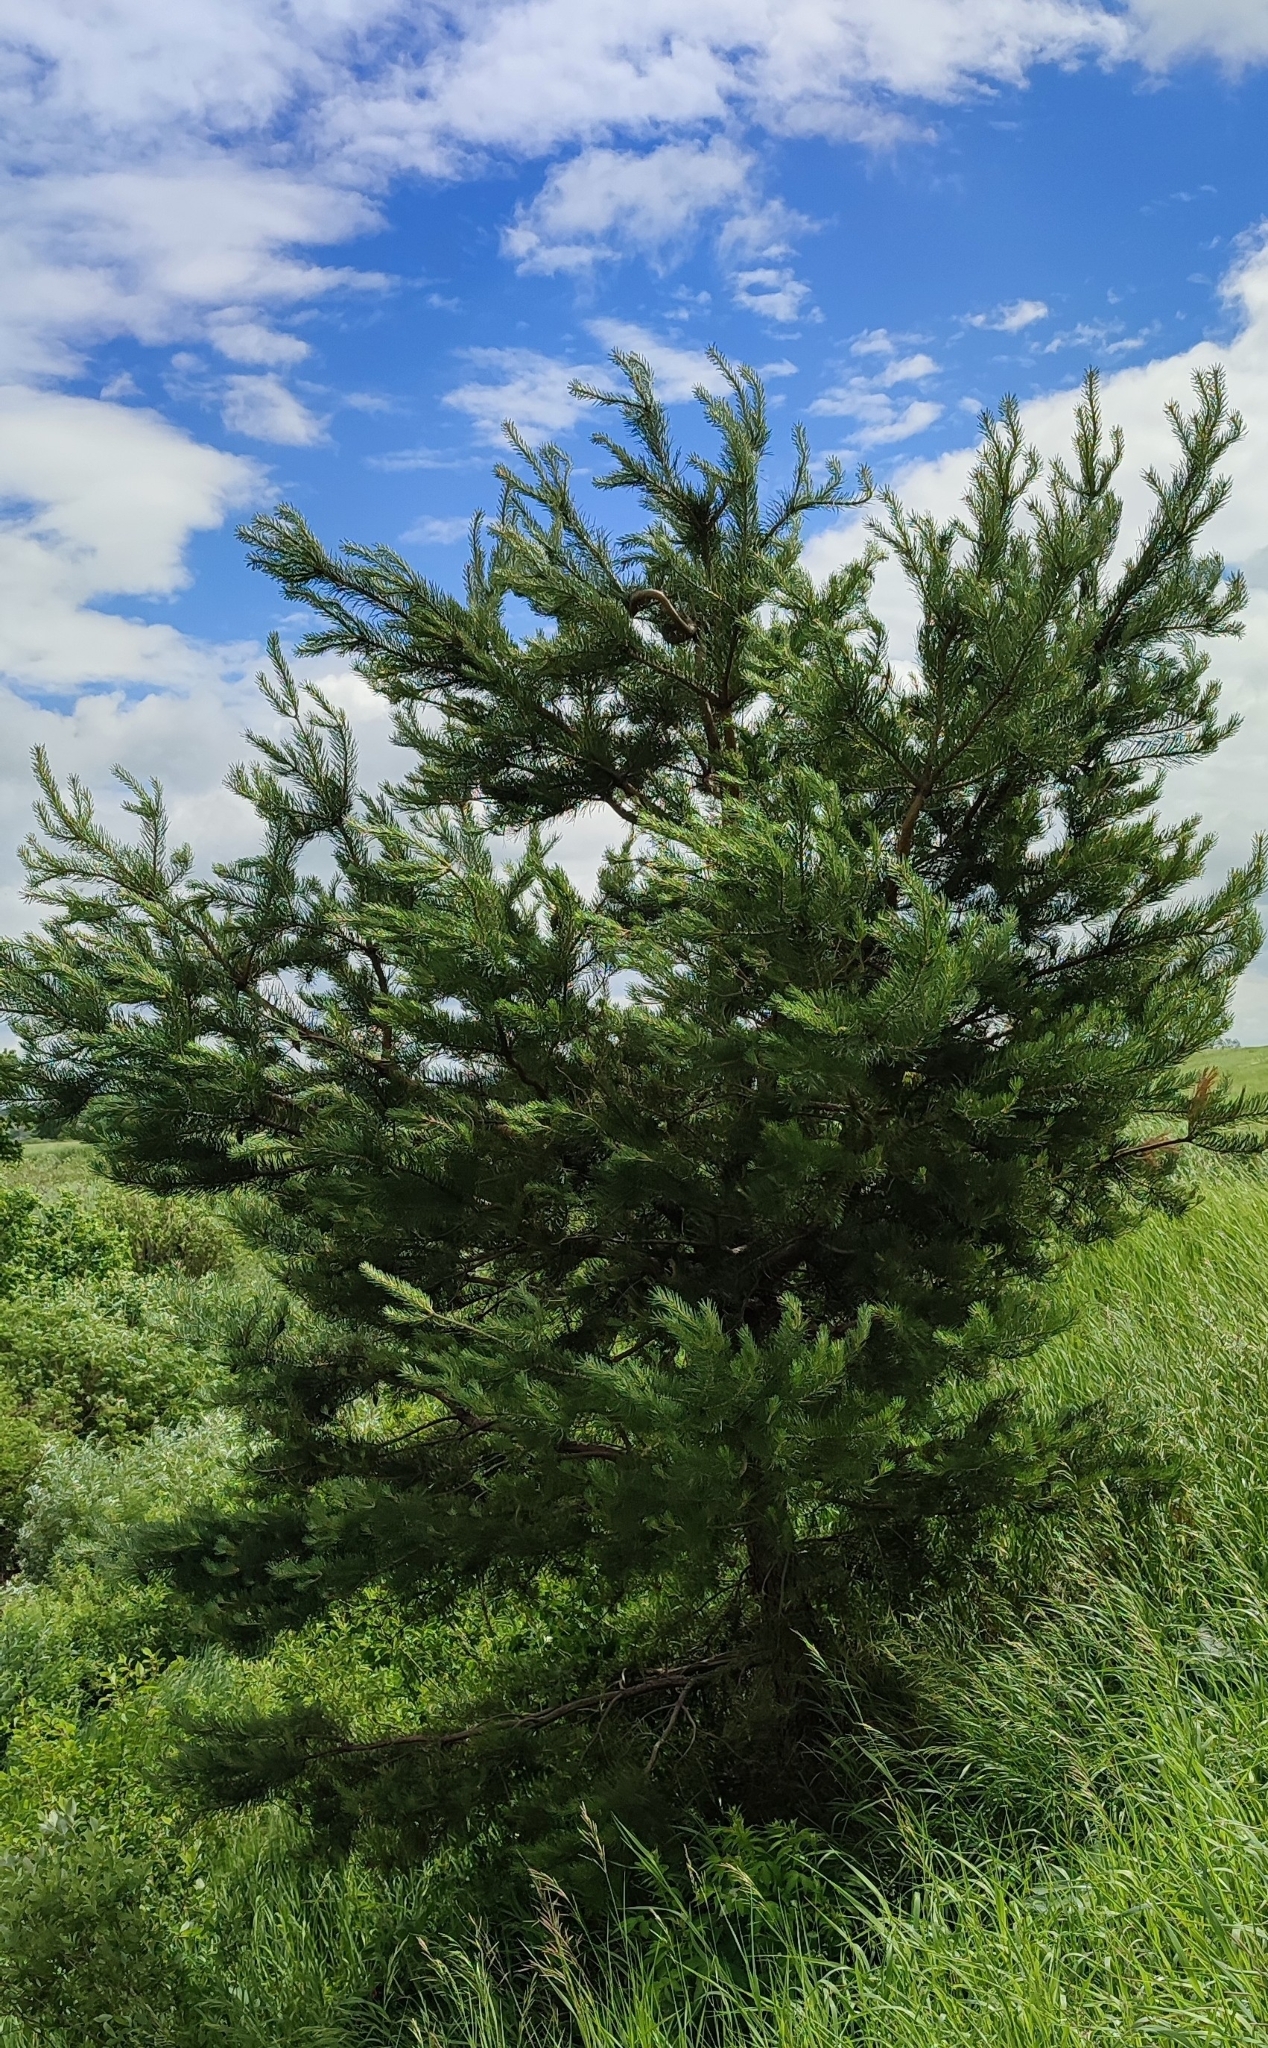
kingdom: Plantae
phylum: Tracheophyta
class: Pinopsida
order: Pinales
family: Pinaceae
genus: Pinus
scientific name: Pinus sylvestris
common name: Scots pine
